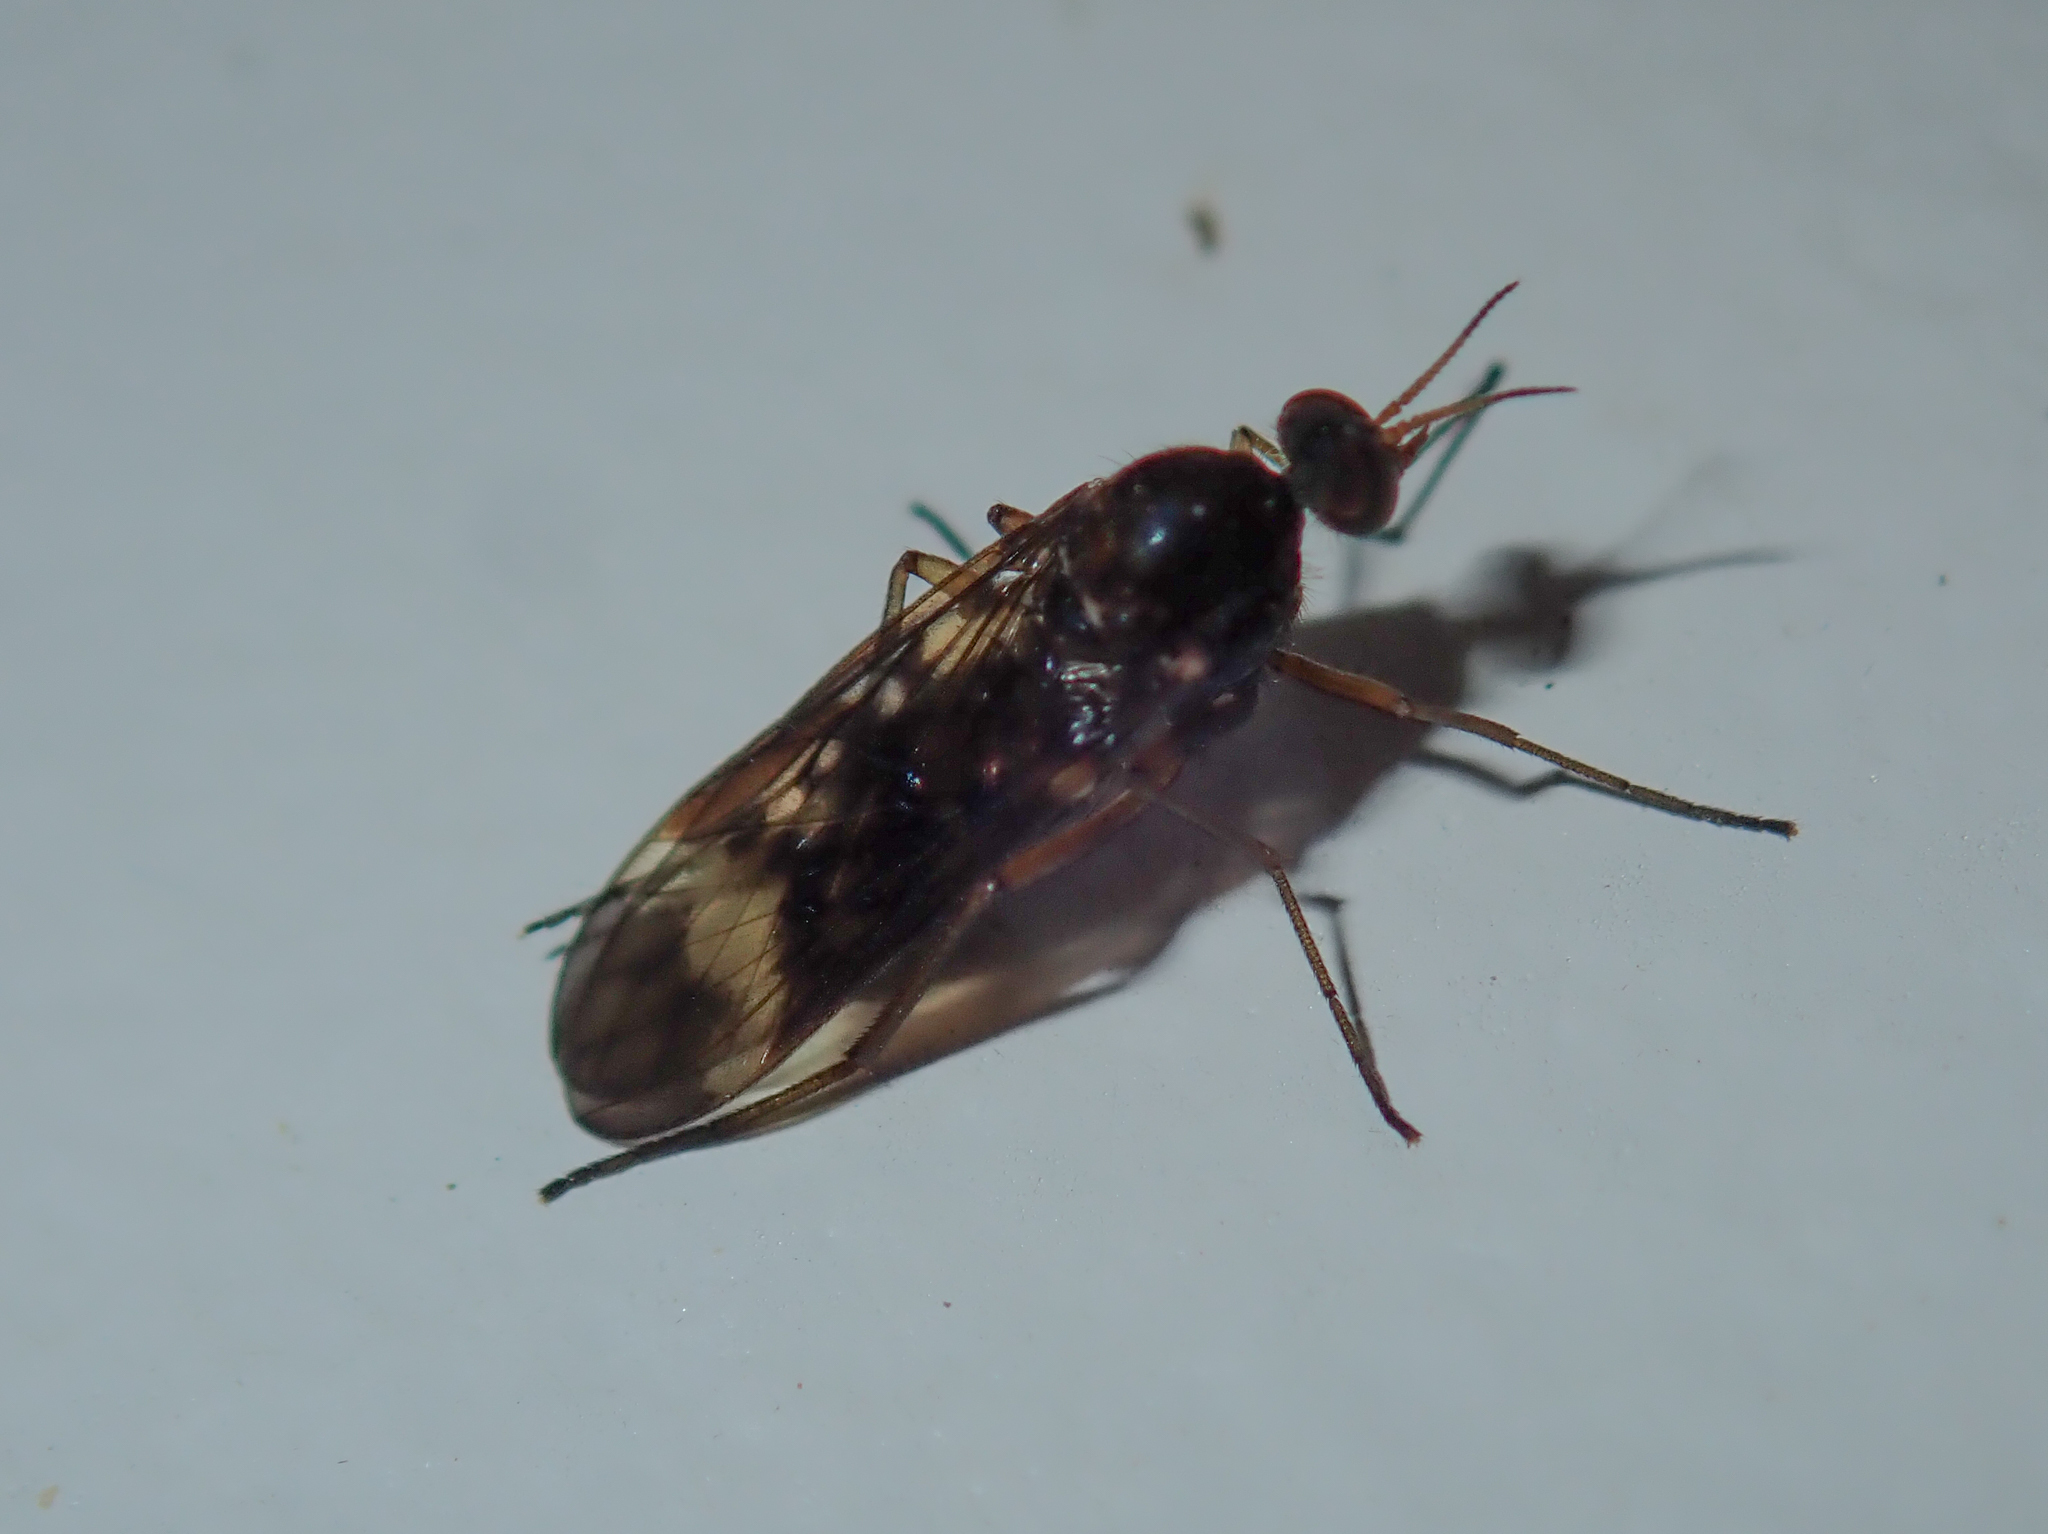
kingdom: Animalia
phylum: Arthropoda
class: Insecta
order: Diptera
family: Anisopodidae
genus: Sylvicola
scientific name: Sylvicola neozelandicus
